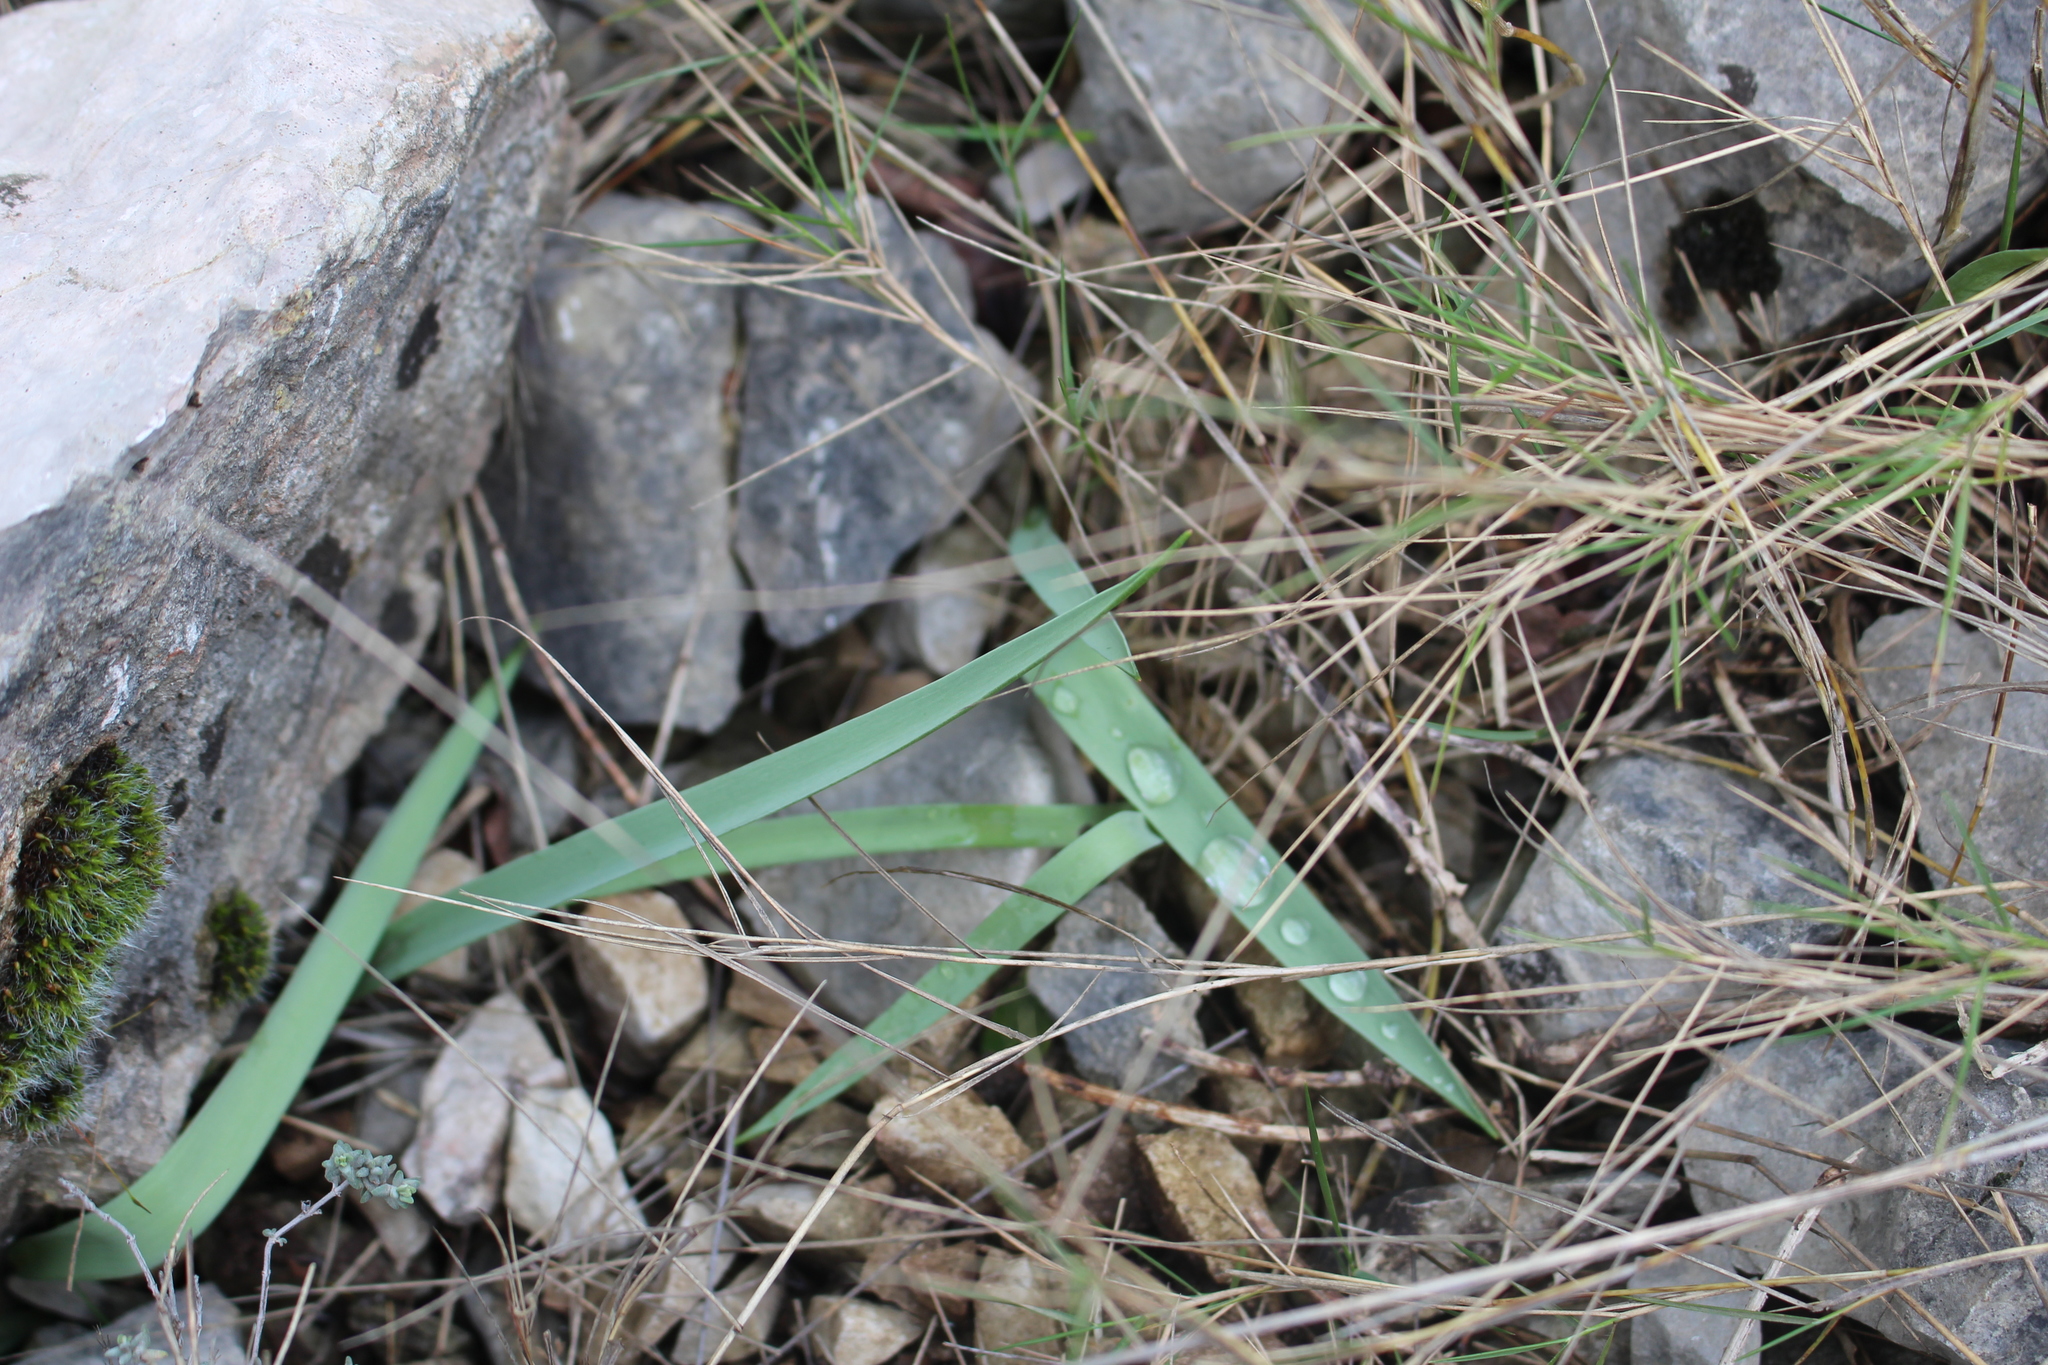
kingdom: Plantae
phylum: Tracheophyta
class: Liliopsida
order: Liliales
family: Liliaceae
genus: Tulipa
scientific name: Tulipa sylvestris
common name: Wild tulip
